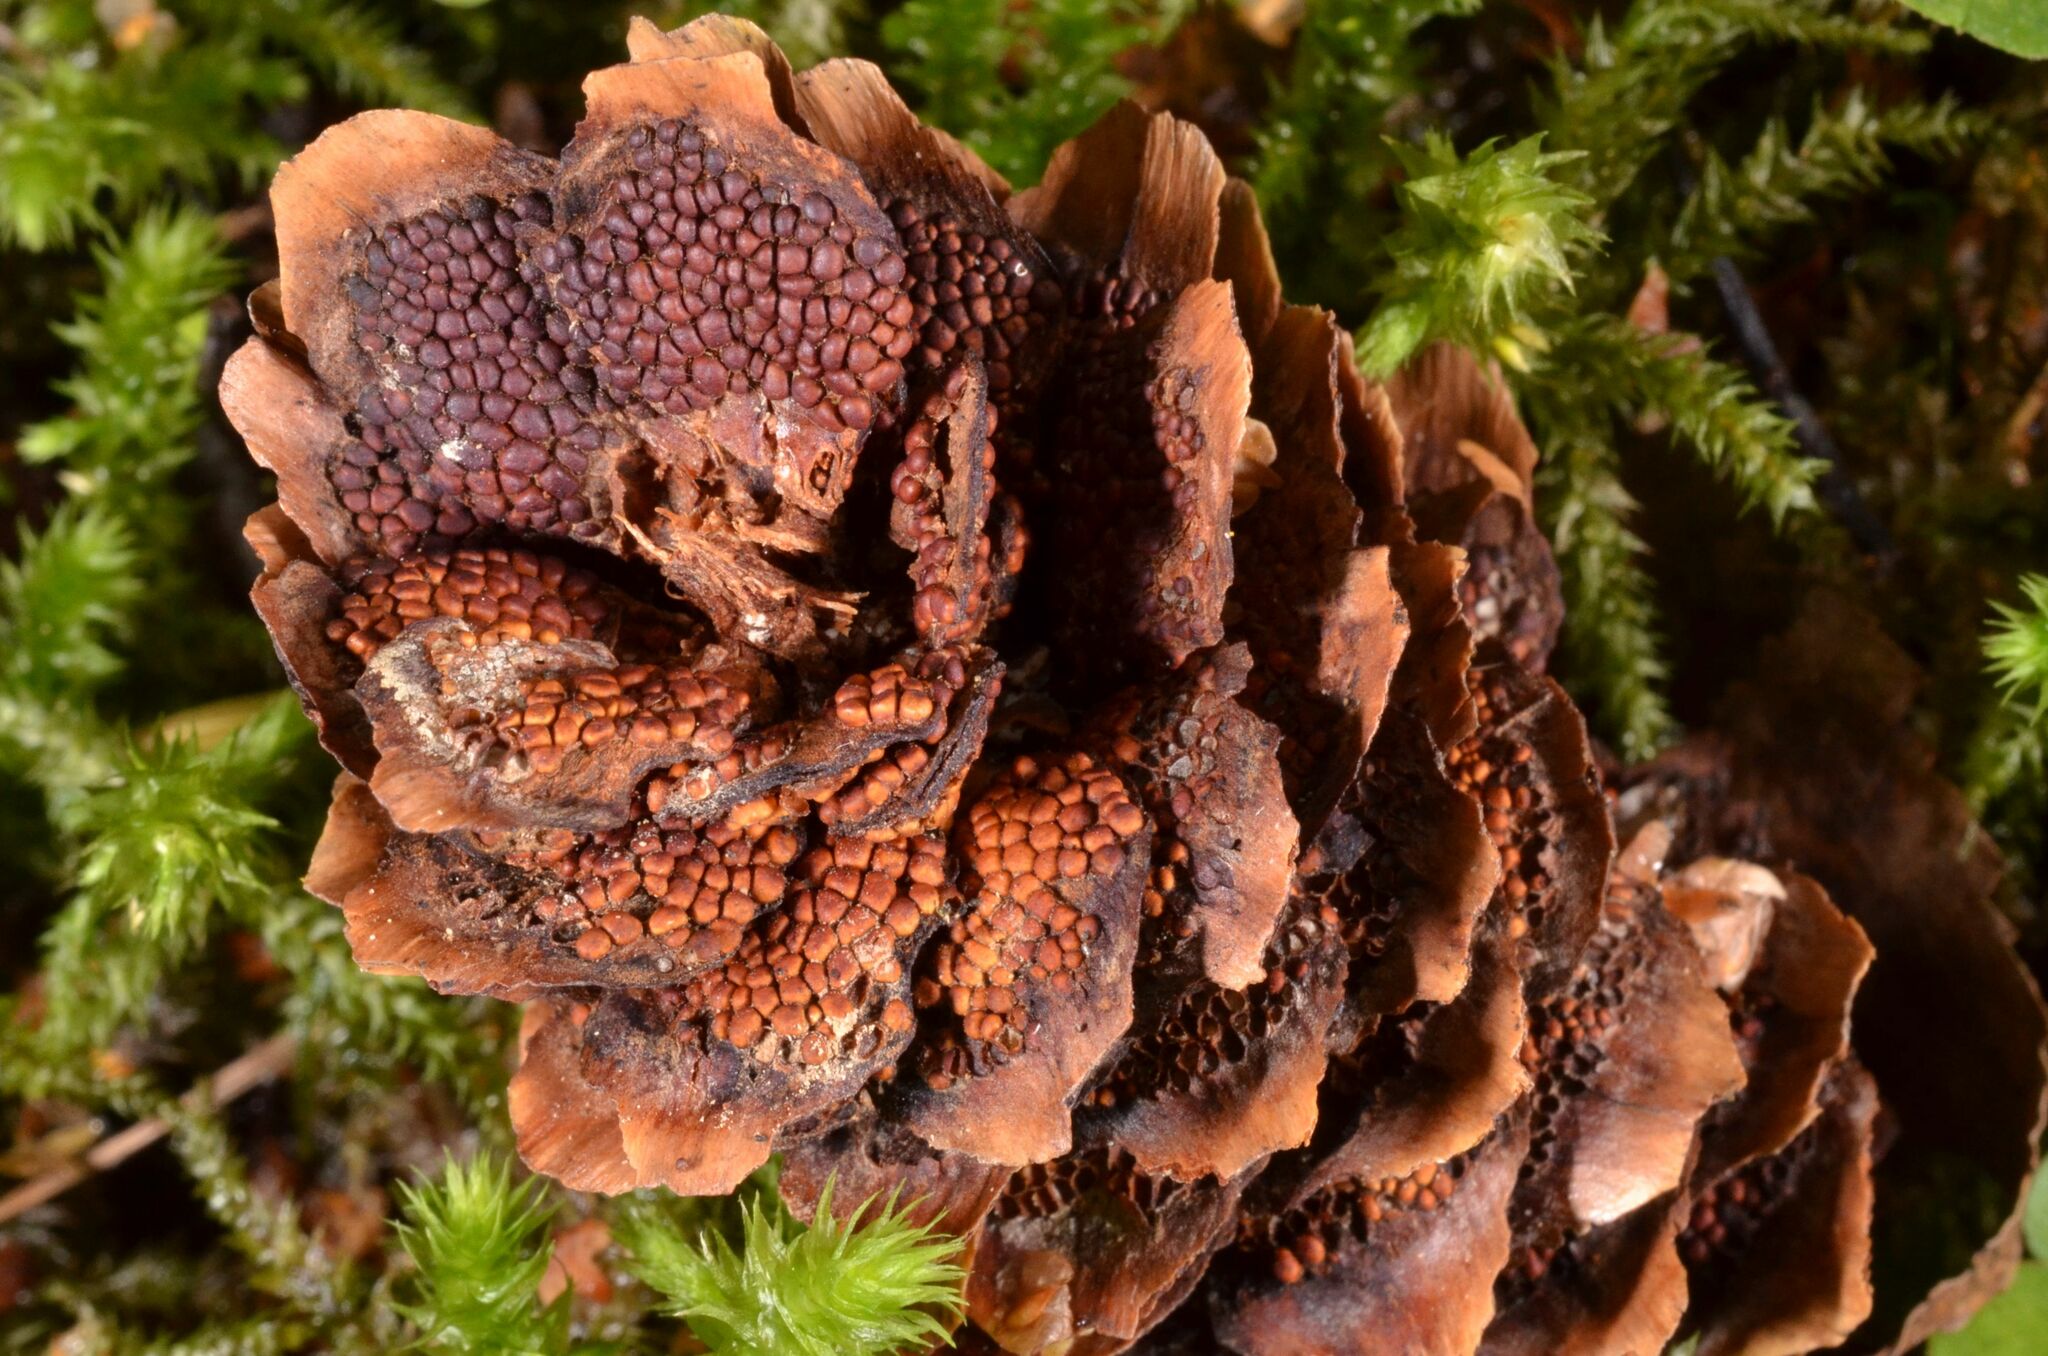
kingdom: Fungi
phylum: Basidiomycota
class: Pucciniomycetes
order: Pucciniales
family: Pucciniastraceae
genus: Thekopsora
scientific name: Thekopsora areolata
